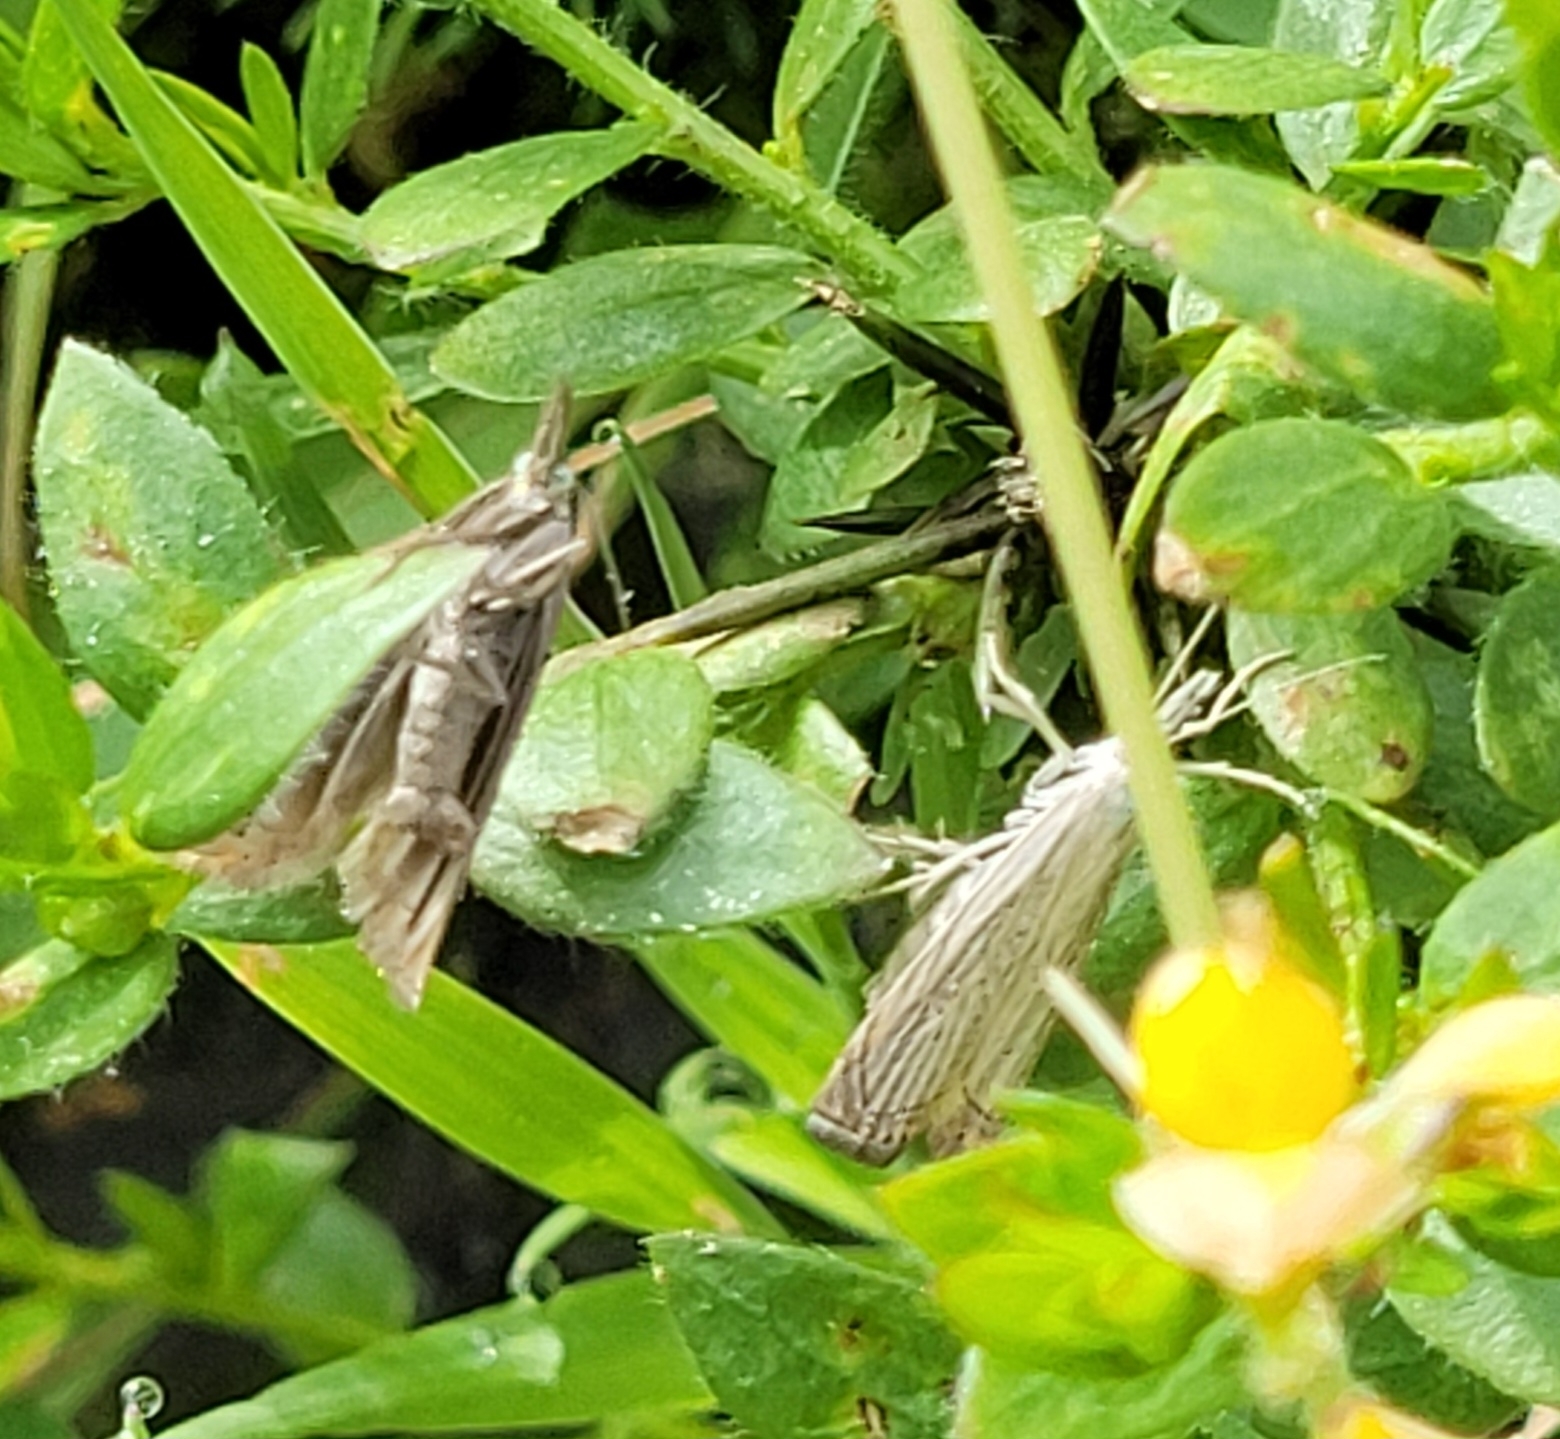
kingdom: Animalia
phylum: Arthropoda
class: Insecta
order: Lepidoptera
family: Crambidae
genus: Chrysoteuchia
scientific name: Chrysoteuchia culmella
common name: Garden grass-veneer
